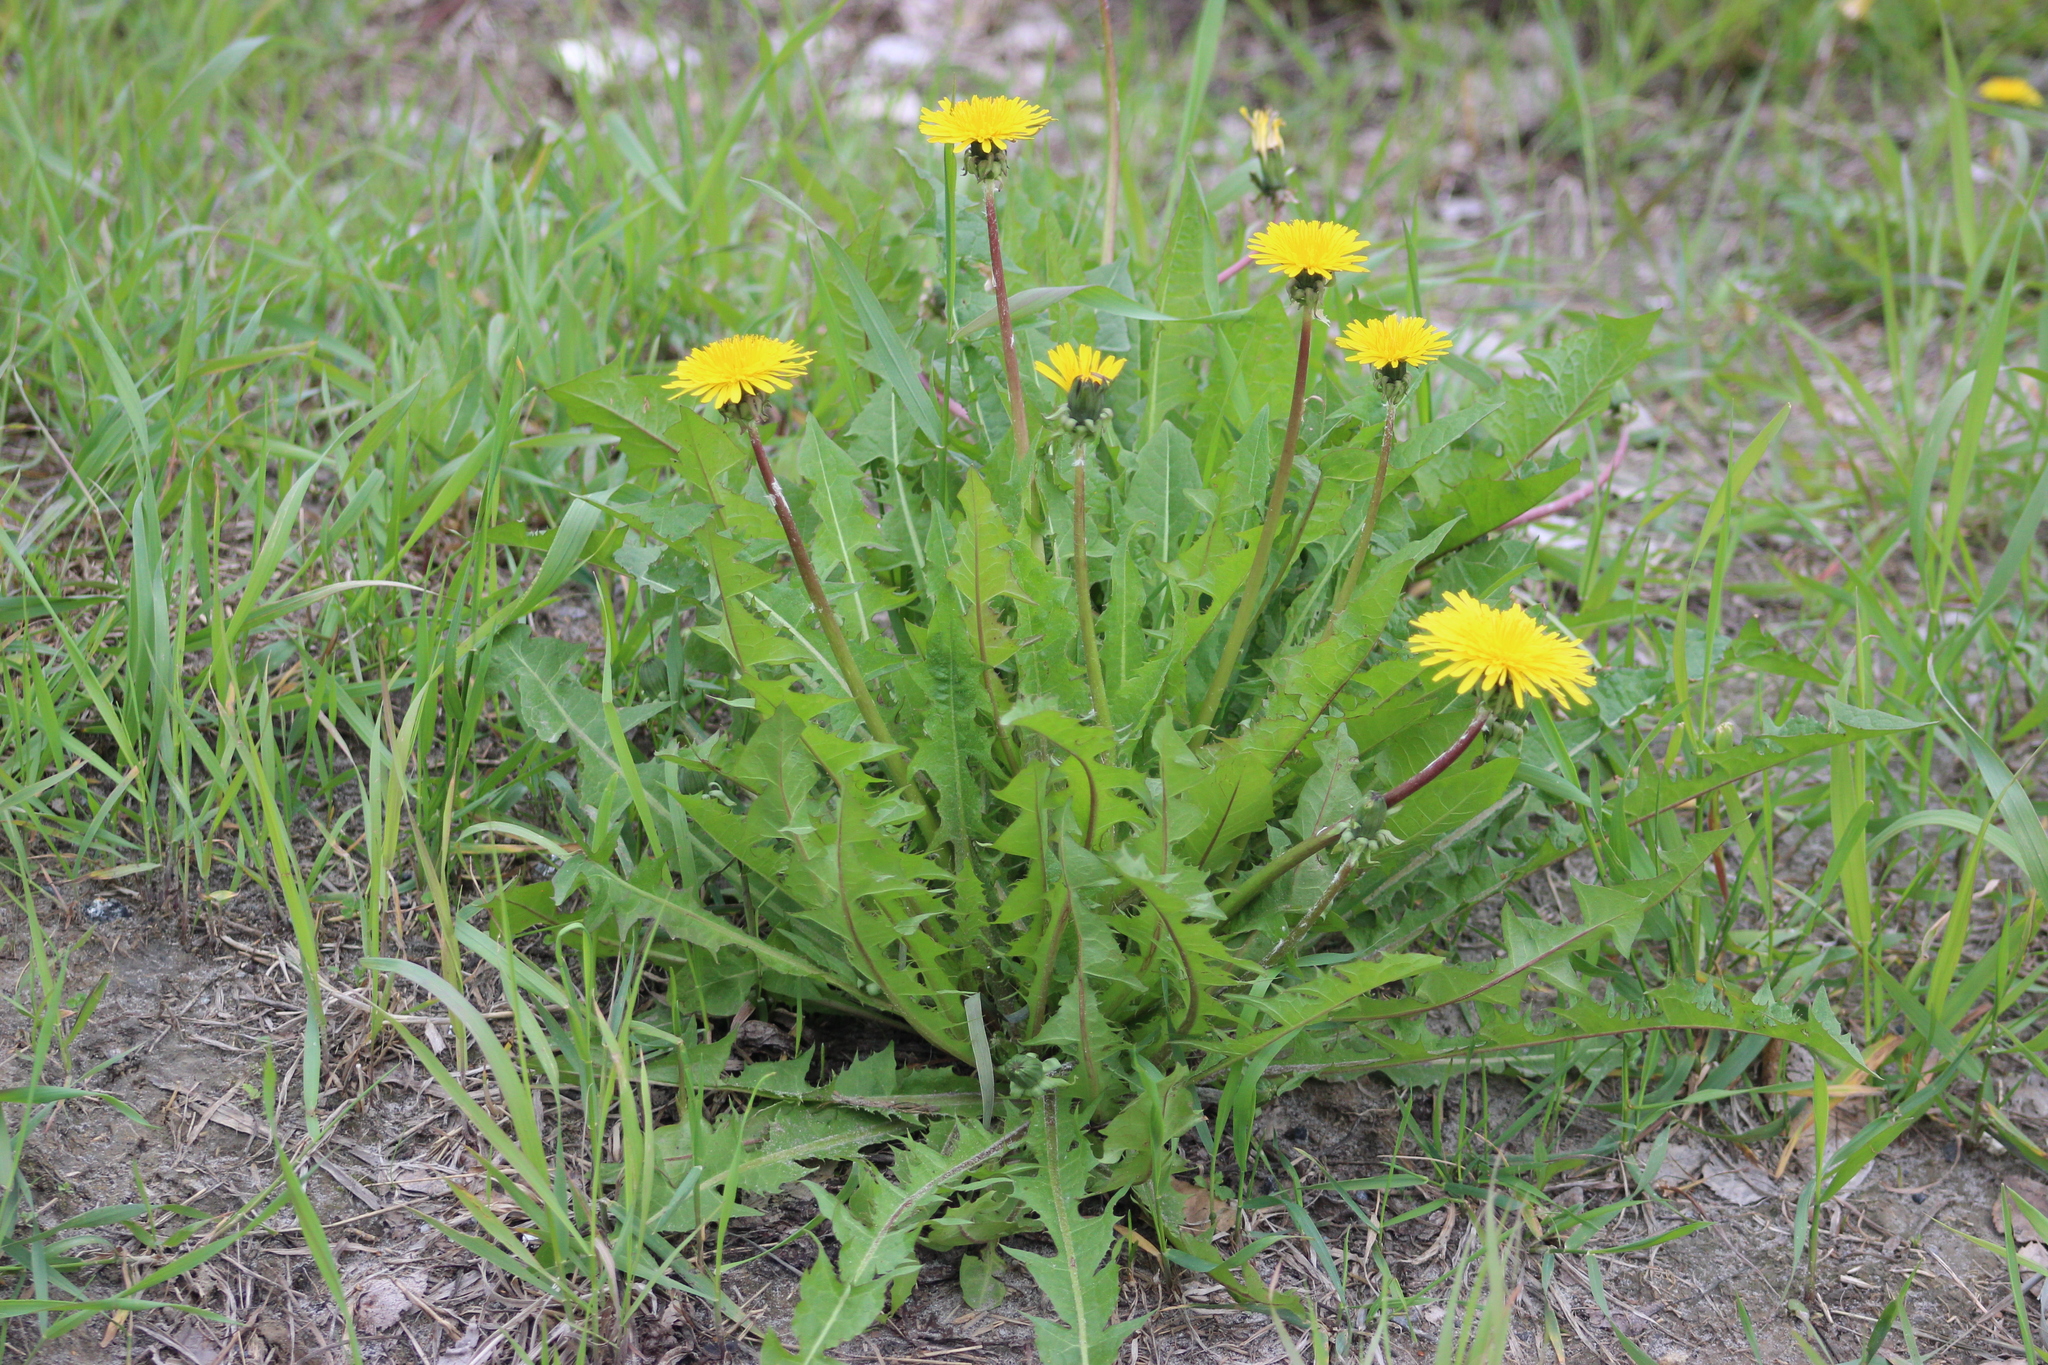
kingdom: Plantae
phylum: Tracheophyta
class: Magnoliopsida
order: Asterales
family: Asteraceae
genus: Taraxacum
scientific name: Taraxacum officinale
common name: Common dandelion
